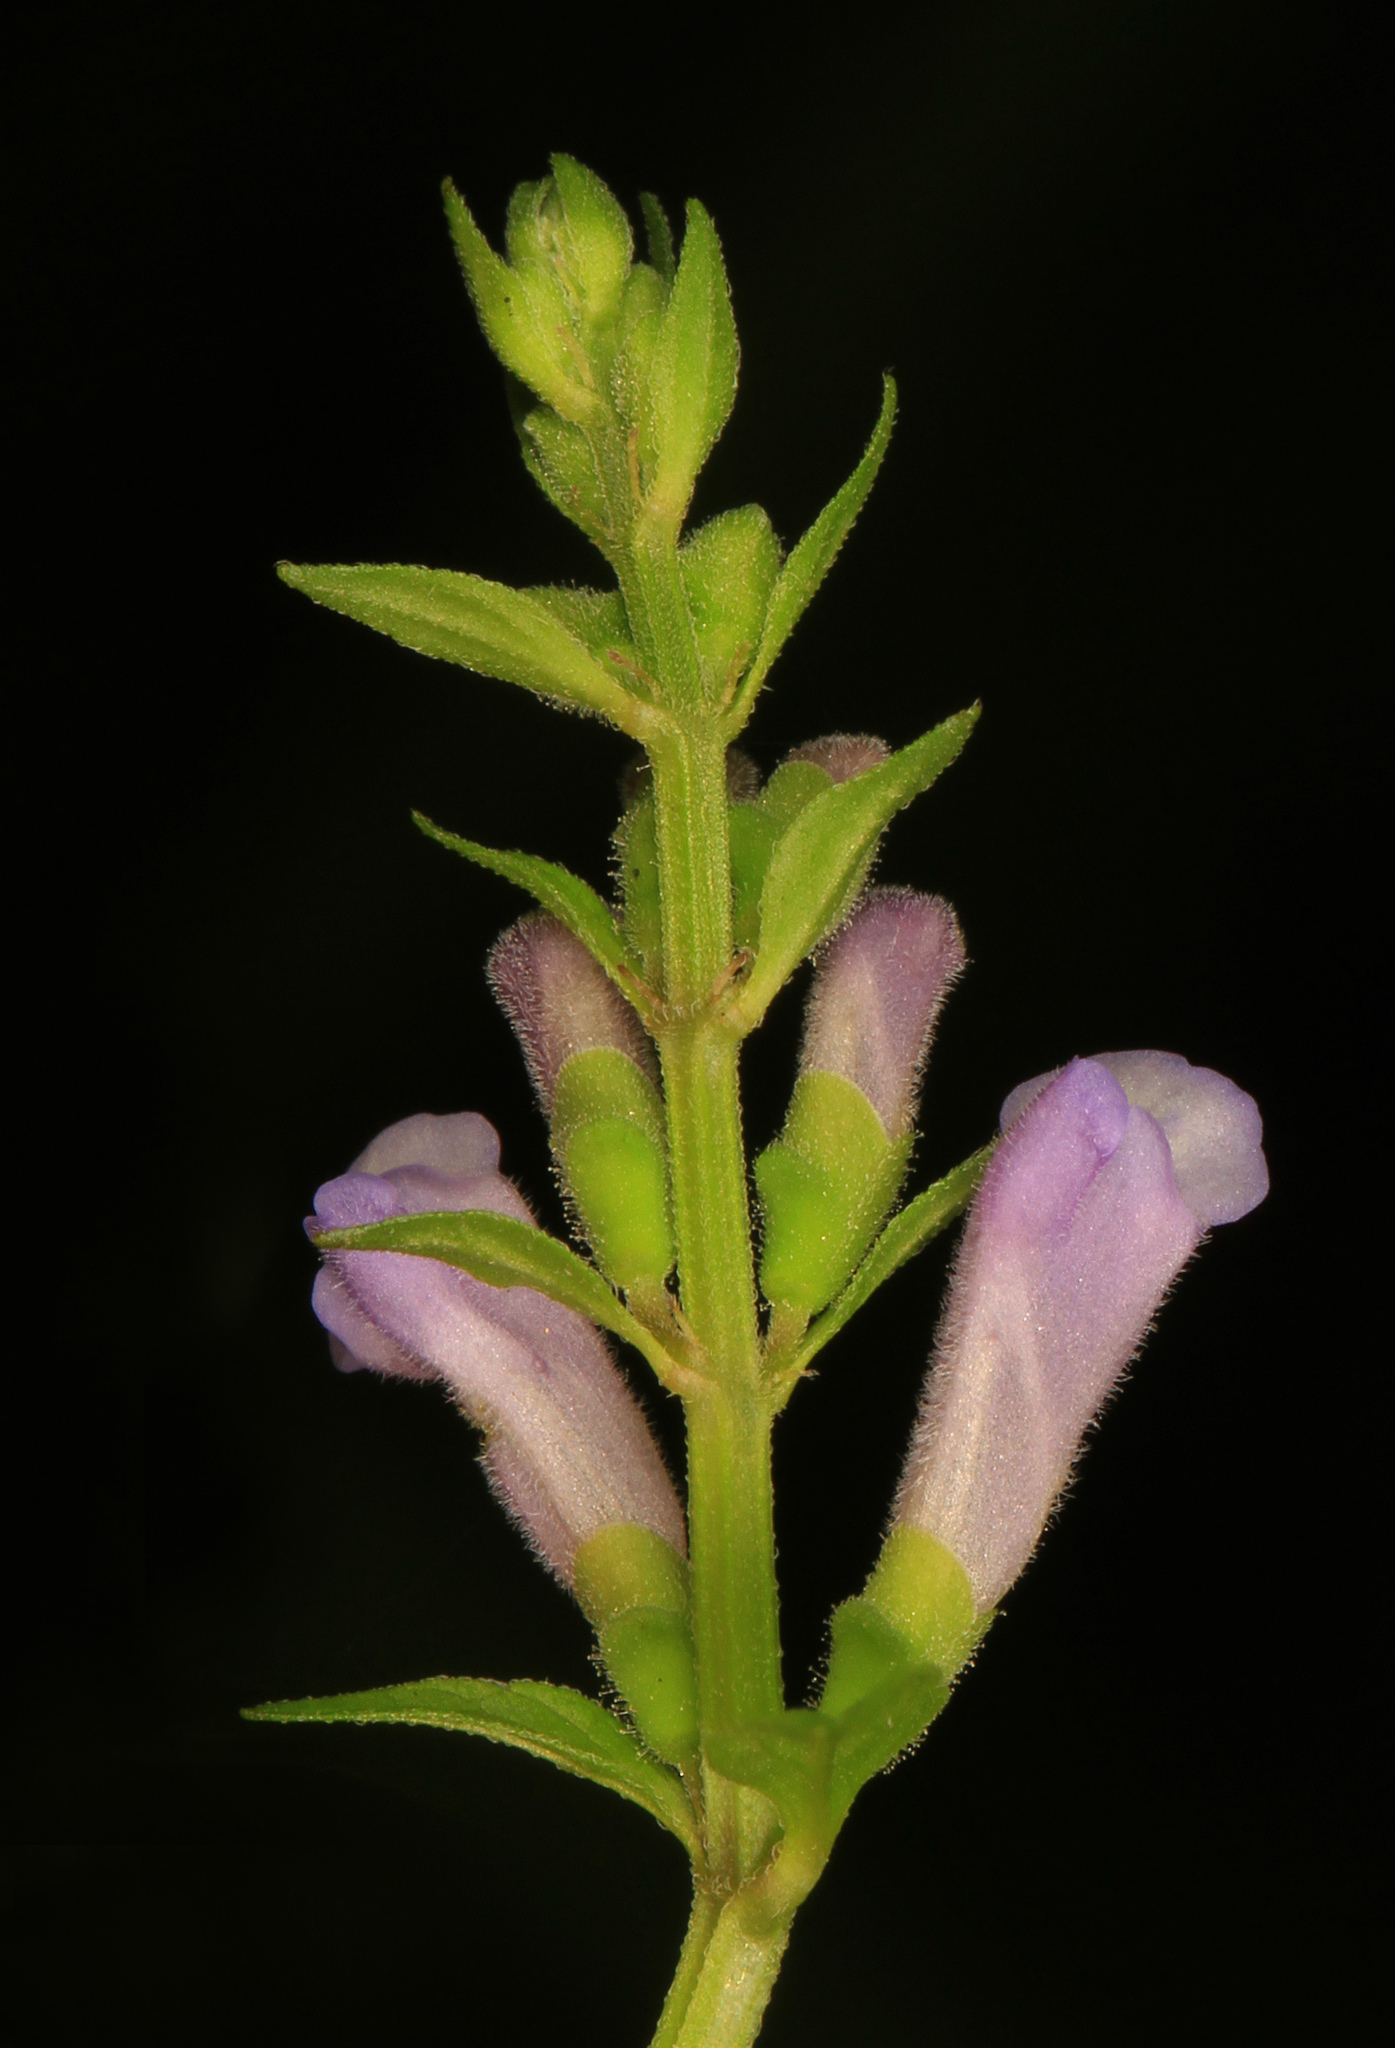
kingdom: Plantae
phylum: Tracheophyta
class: Magnoliopsida
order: Lamiales
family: Lamiaceae
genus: Scutellaria
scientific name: Scutellaria lateriflora
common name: Blue skullcap
